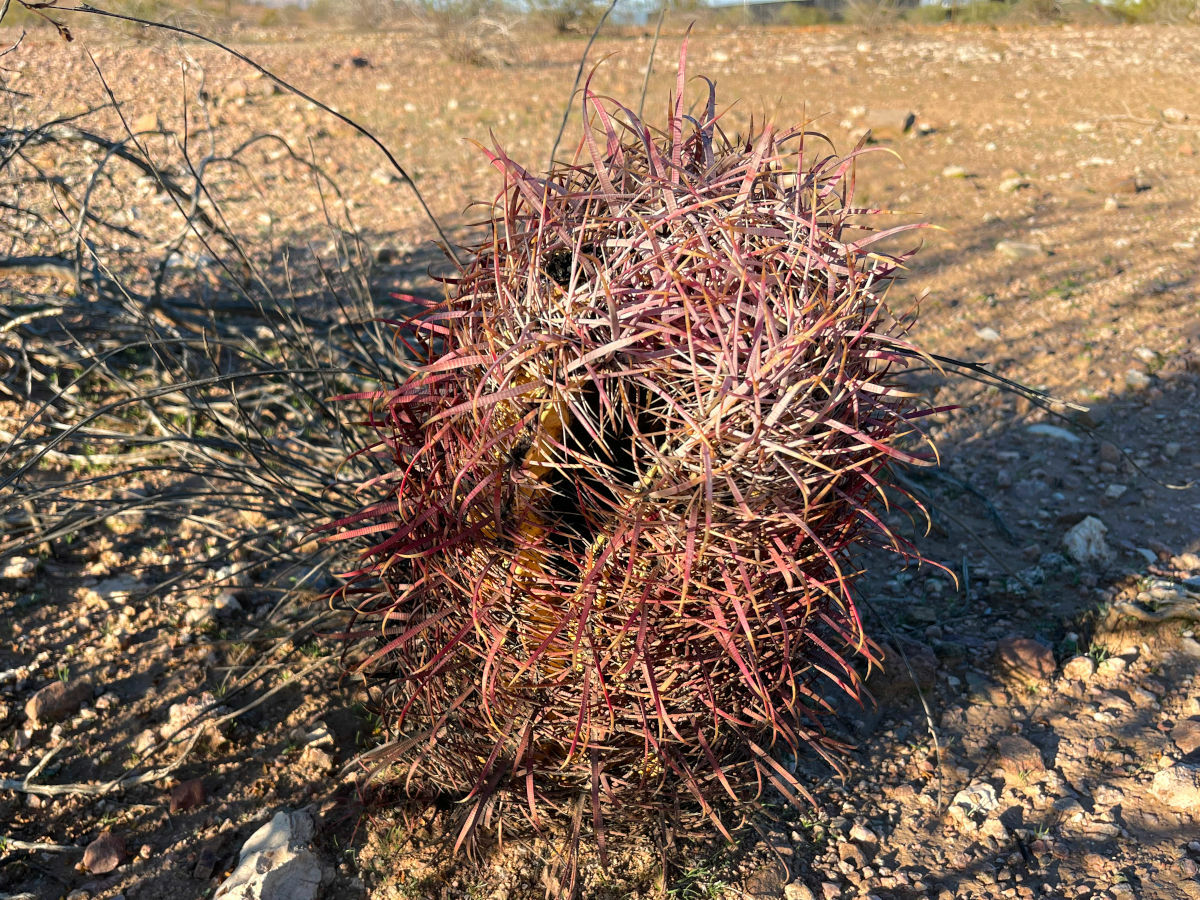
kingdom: Plantae
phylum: Tracheophyta
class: Magnoliopsida
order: Caryophyllales
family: Cactaceae
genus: Ferocactus
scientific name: Ferocactus cylindraceus
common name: California barrel cactus
